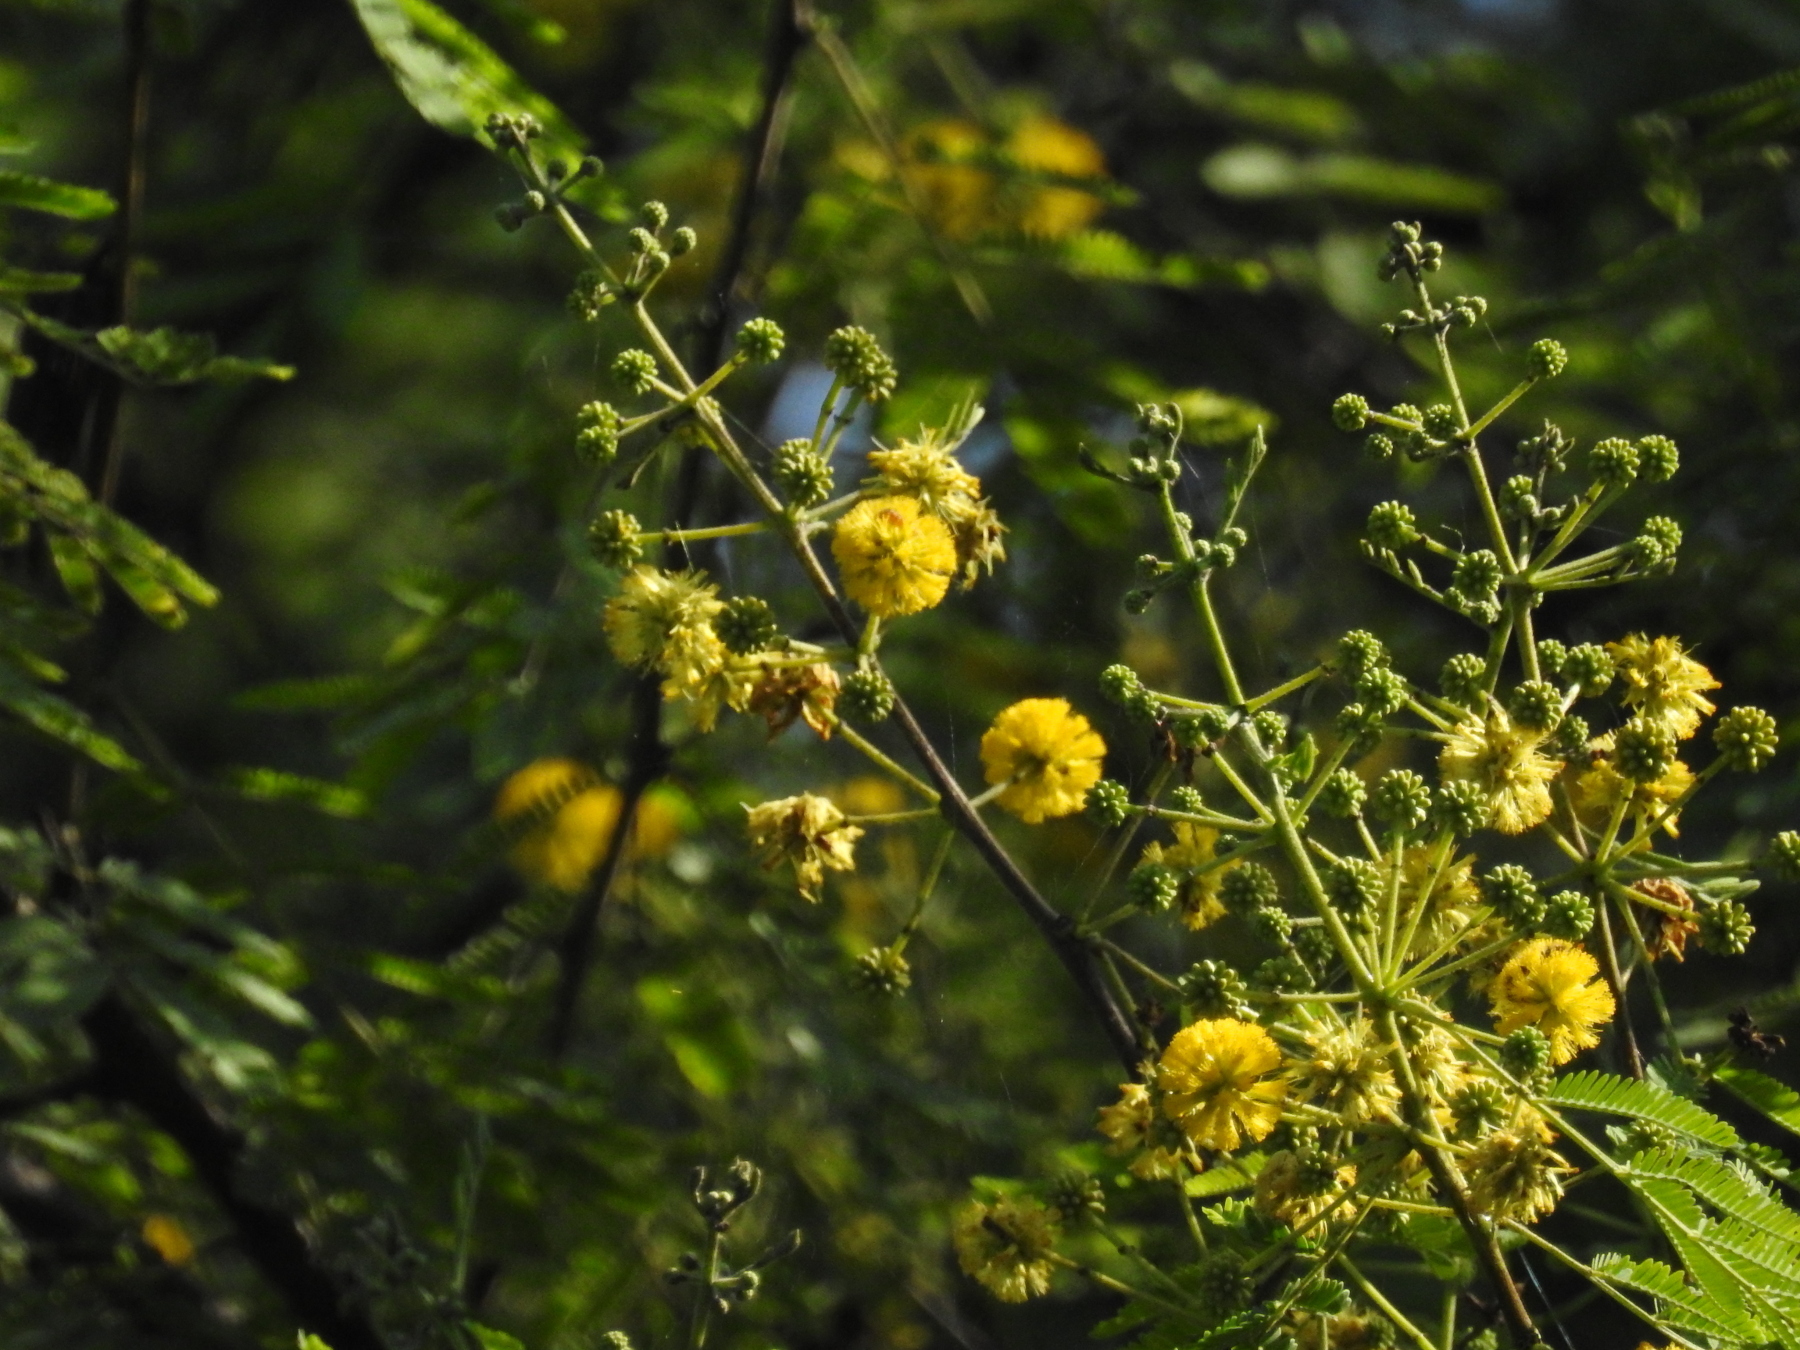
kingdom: Plantae
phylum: Tracheophyta
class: Magnoliopsida
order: Fabales
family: Fabaceae
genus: Vachellia
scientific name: Vachellia nilotica
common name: Arabic gumtree
